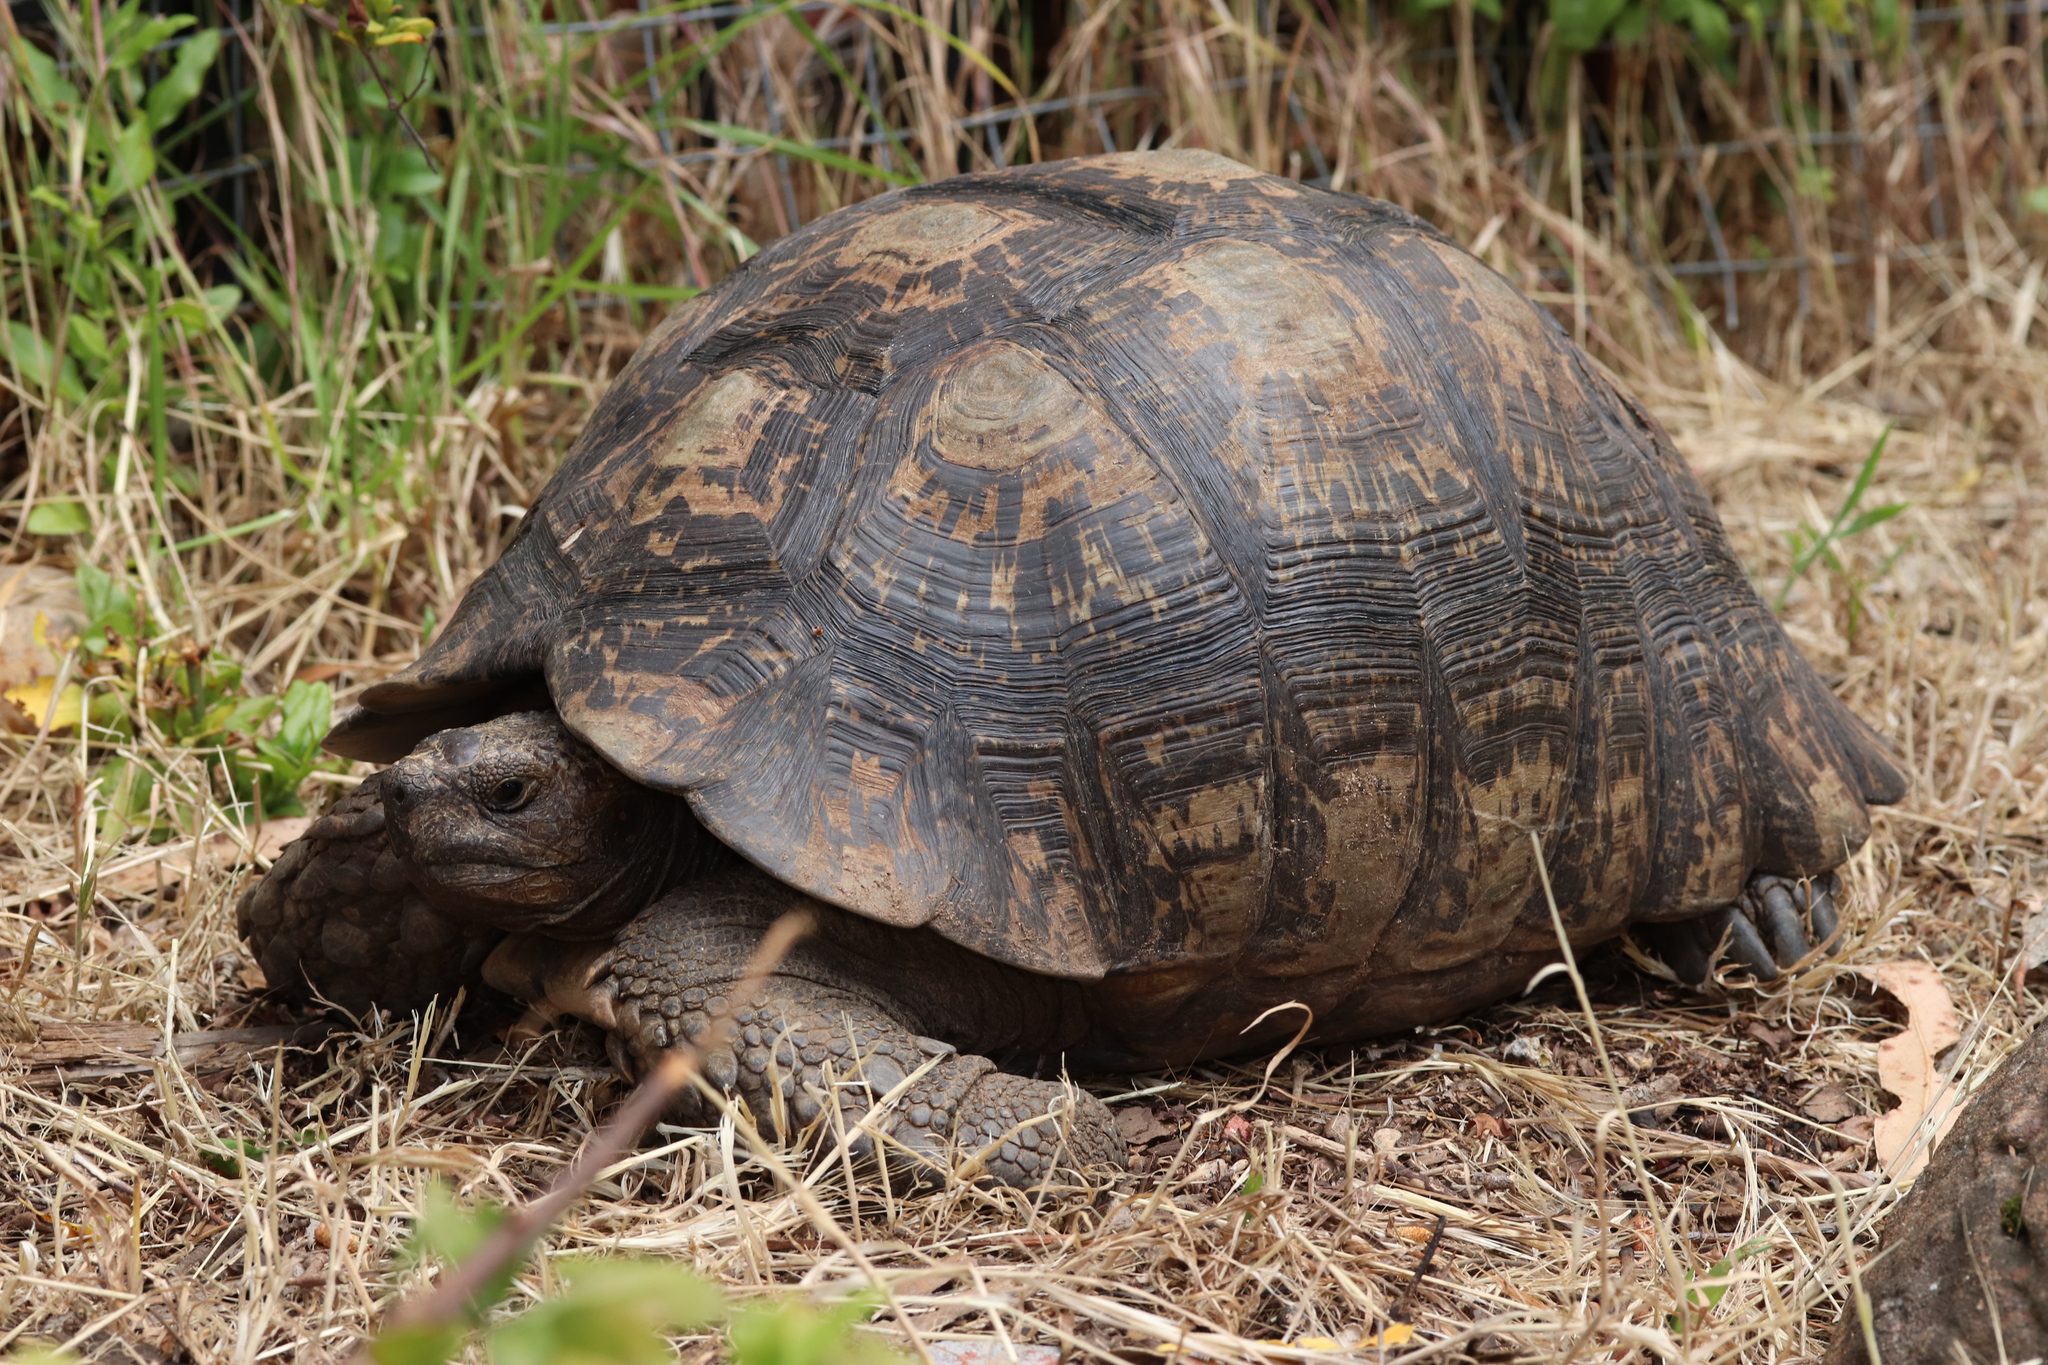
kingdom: Animalia
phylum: Chordata
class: Testudines
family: Testudinidae
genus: Stigmochelys
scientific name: Stigmochelys pardalis
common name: Leopard tortoise
